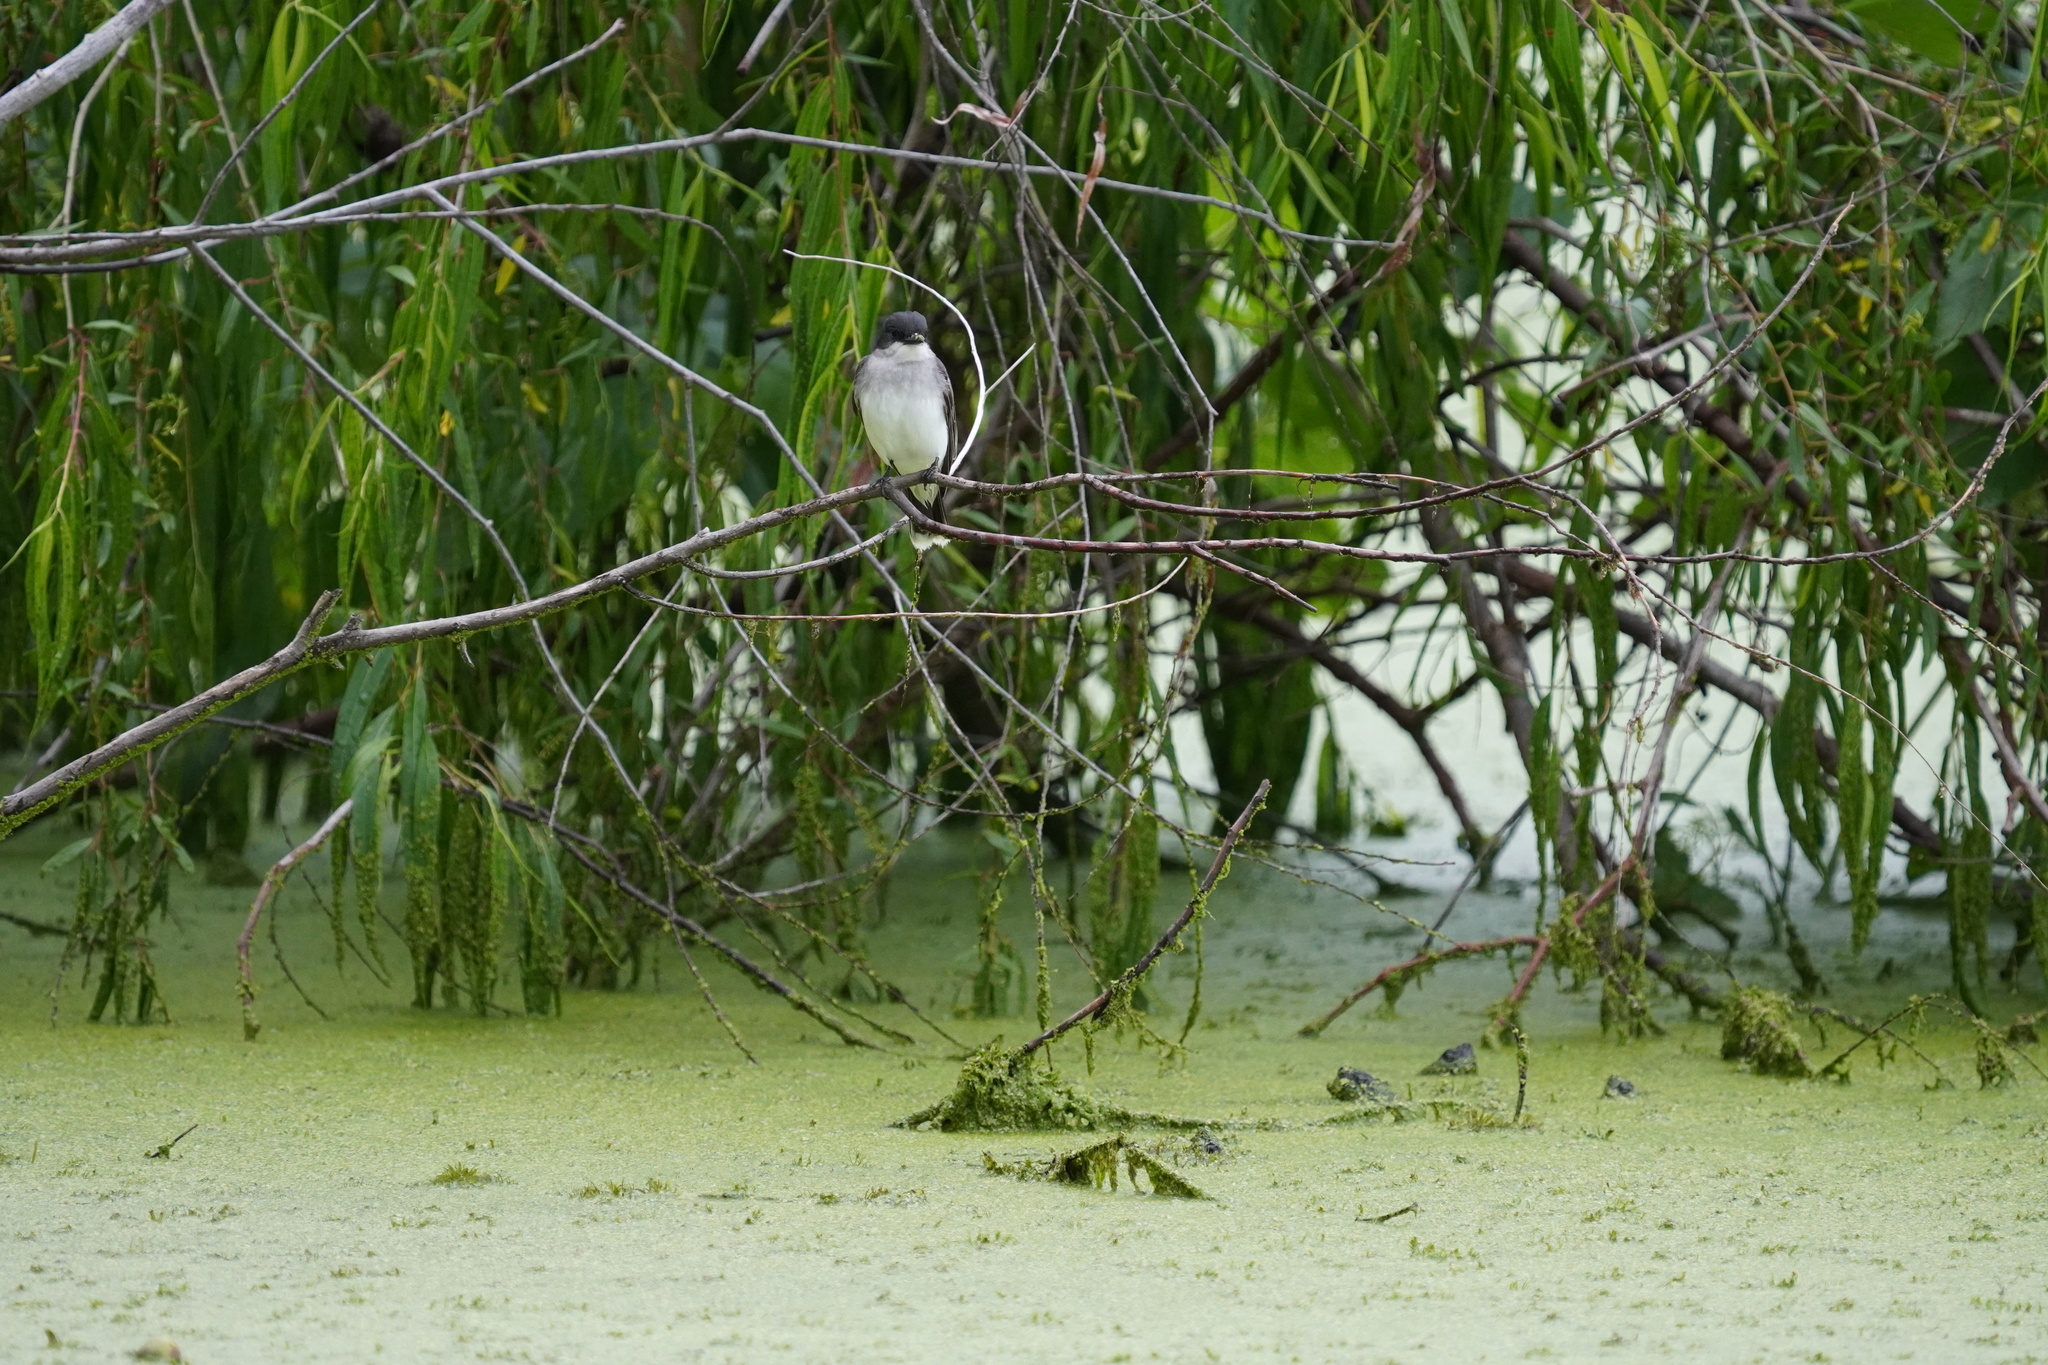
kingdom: Animalia
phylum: Chordata
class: Aves
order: Passeriformes
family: Tyrannidae
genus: Tyrannus
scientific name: Tyrannus tyrannus
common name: Eastern kingbird
